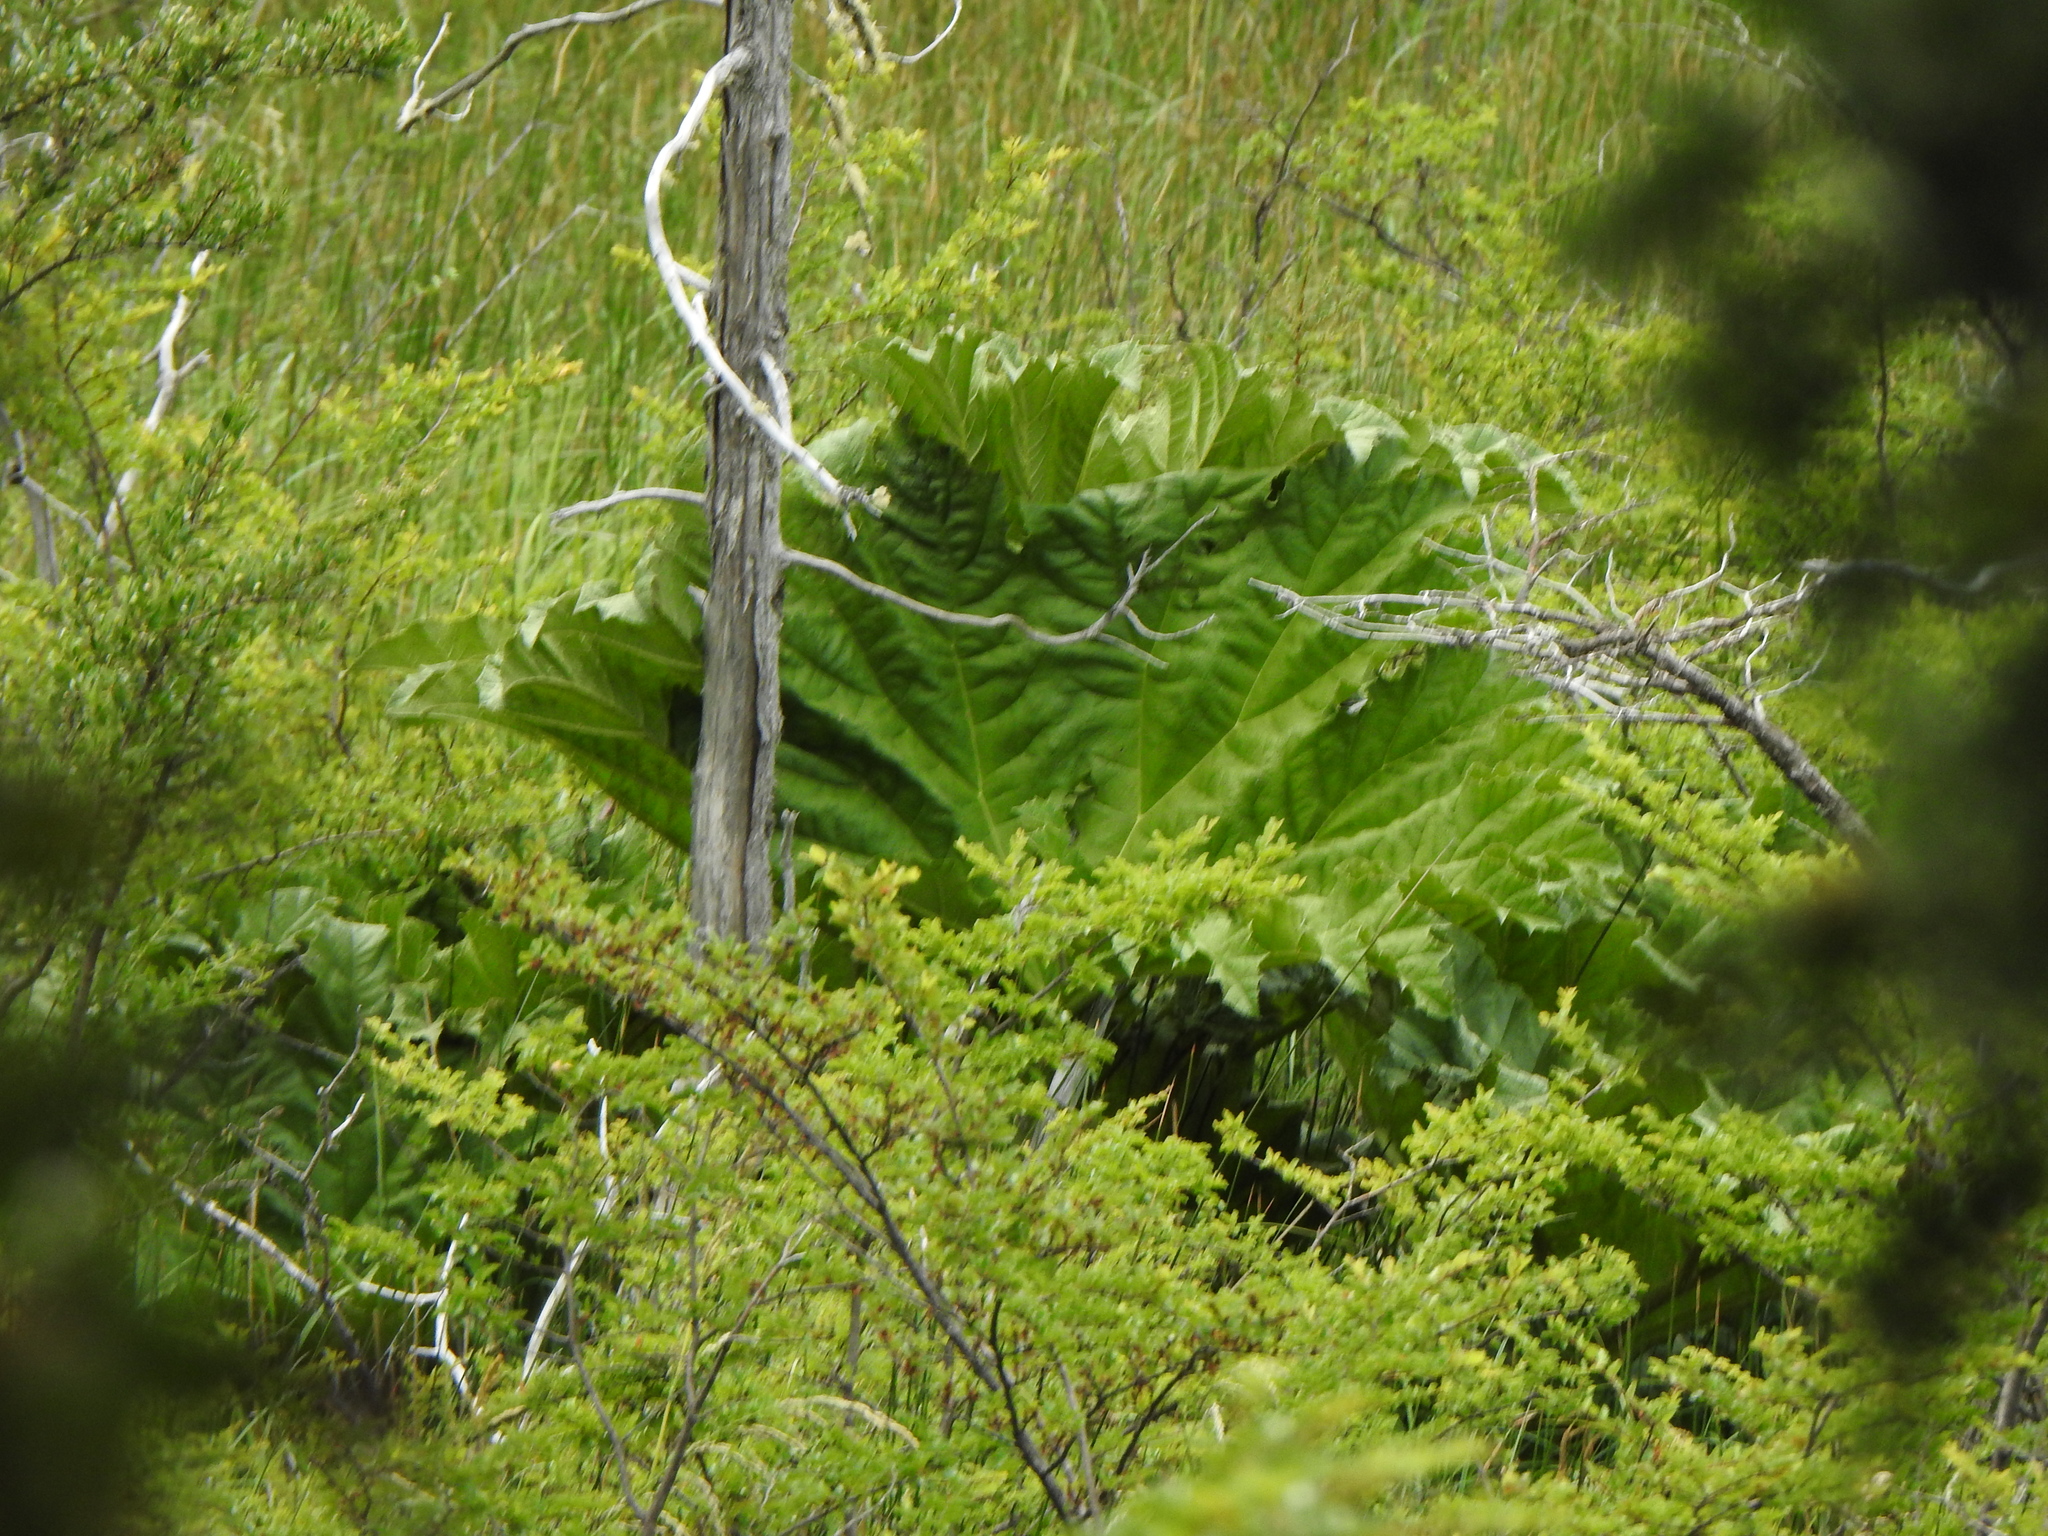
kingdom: Plantae
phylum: Tracheophyta
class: Magnoliopsida
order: Gunnerales
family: Gunneraceae
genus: Gunnera
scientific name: Gunnera tinctoria
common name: Giant-rhubarb
